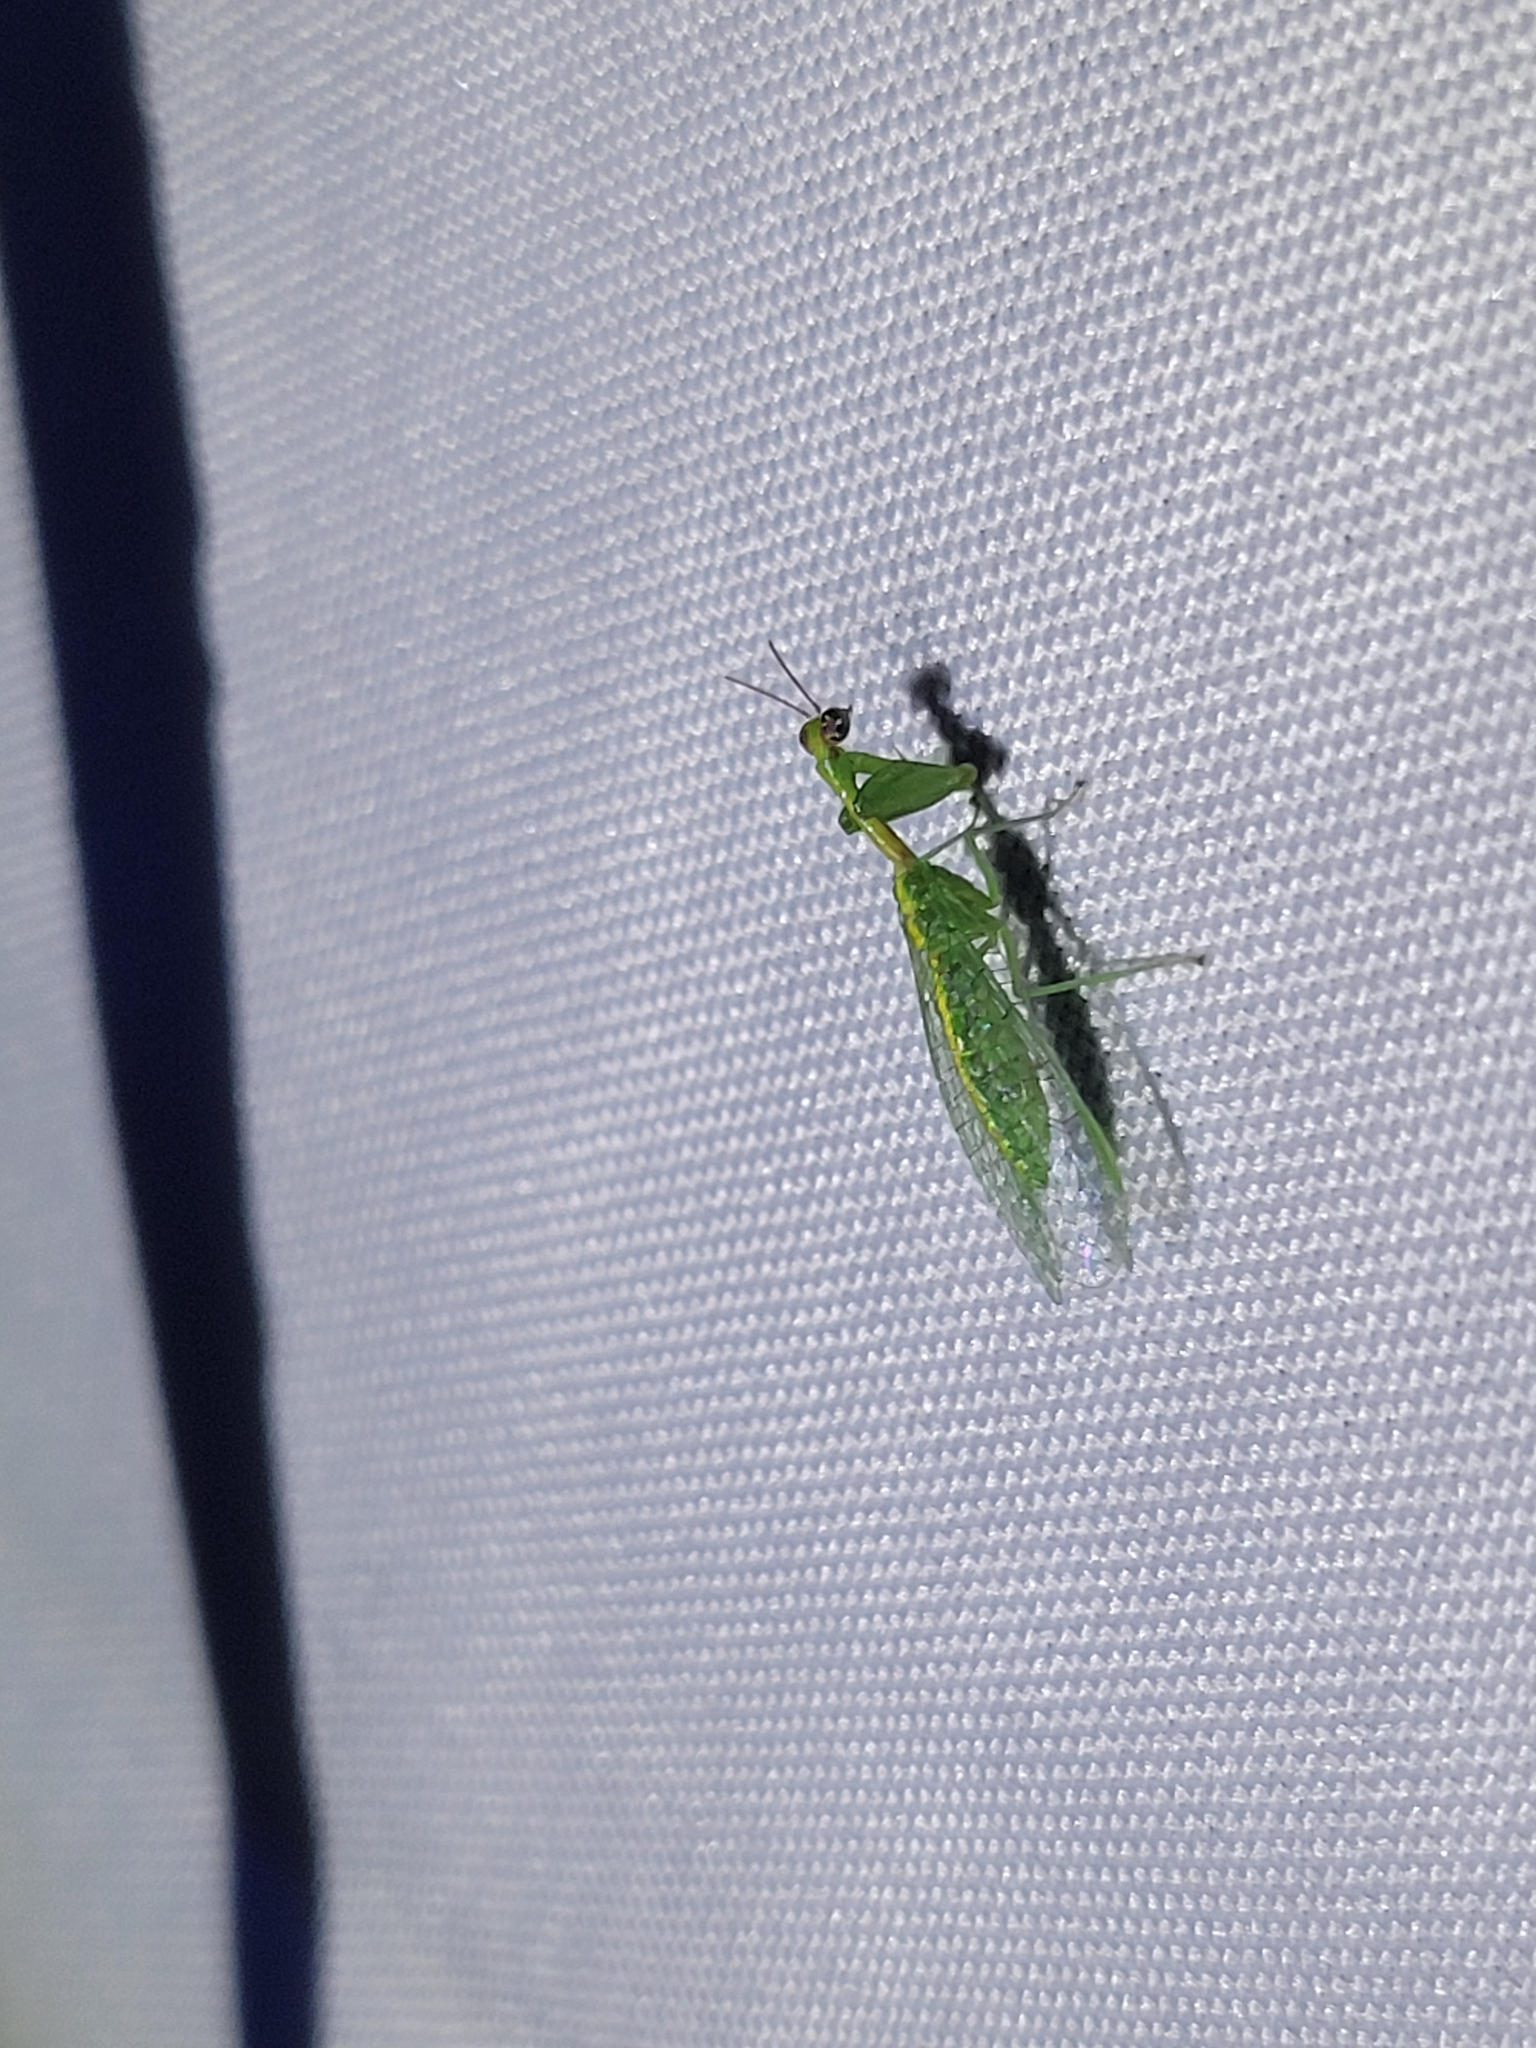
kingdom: Animalia
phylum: Arthropoda
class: Insecta
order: Neuroptera
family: Mantispidae
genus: Zeugomantispa
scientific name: Zeugomantispa minuta
